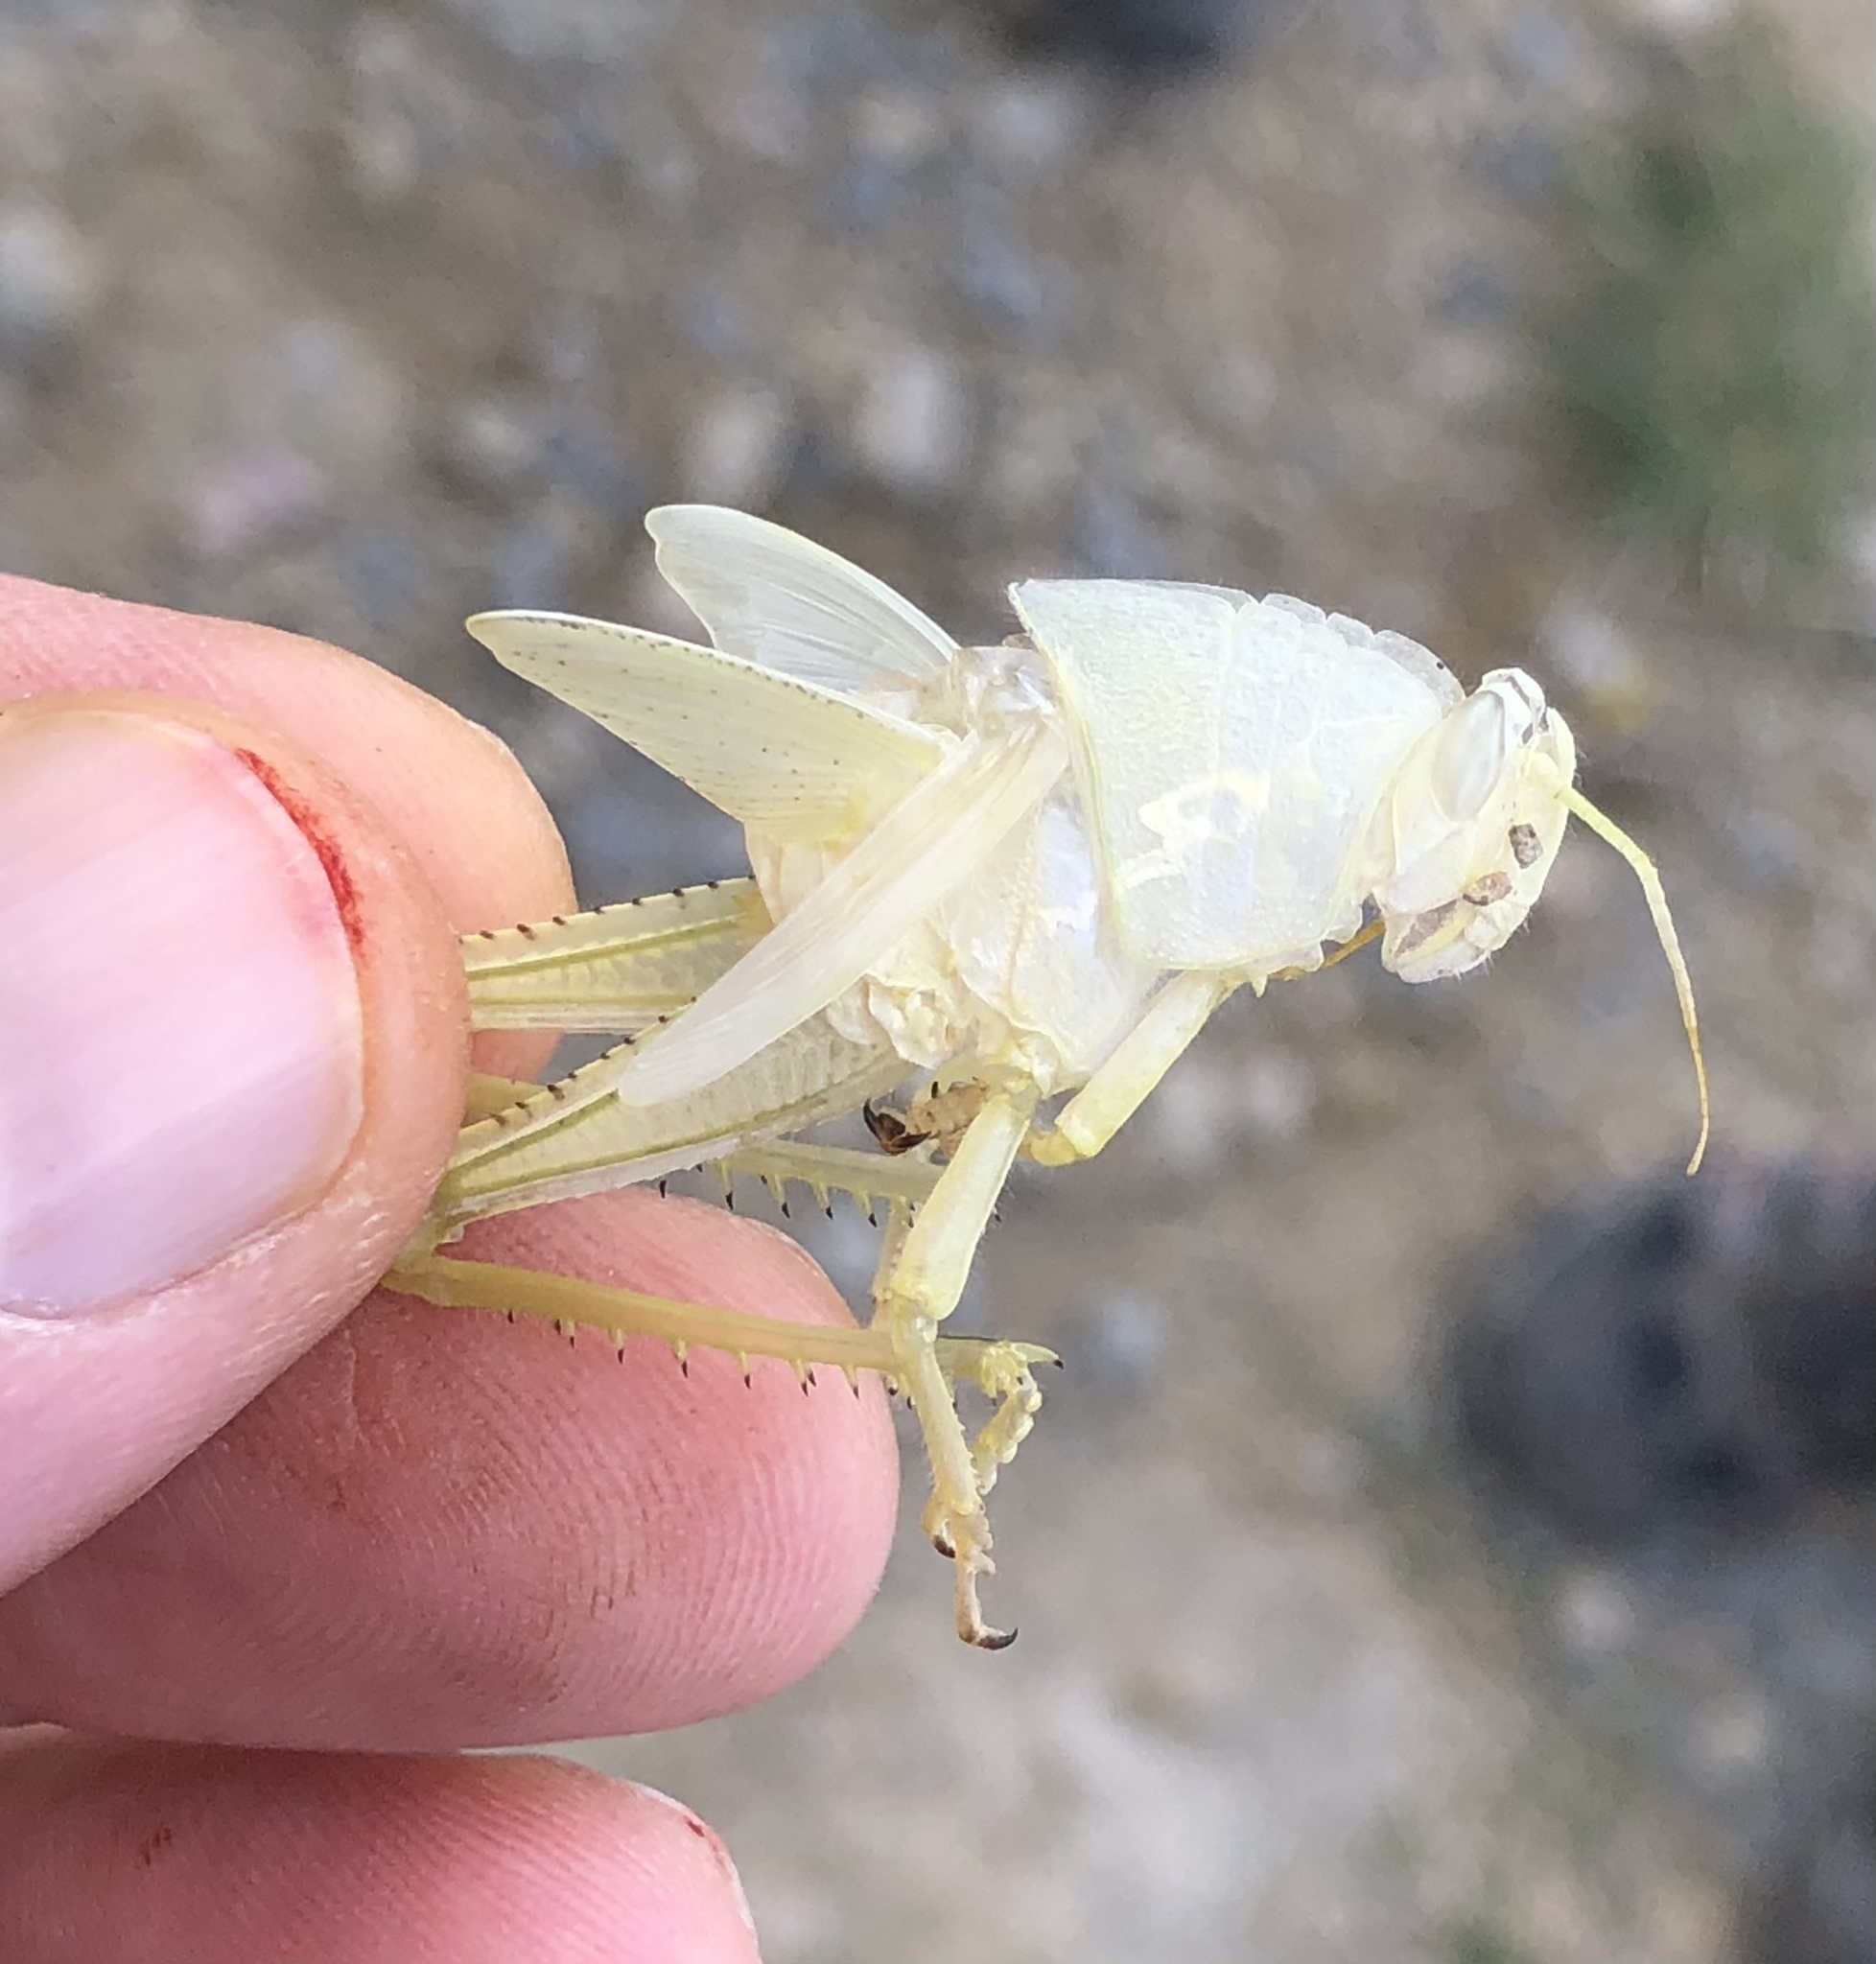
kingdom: Animalia
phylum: Arthropoda
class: Insecta
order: Orthoptera
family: Acrididae
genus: Anacridium
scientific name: Anacridium aegyptium
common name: Egyptian grasshopper
